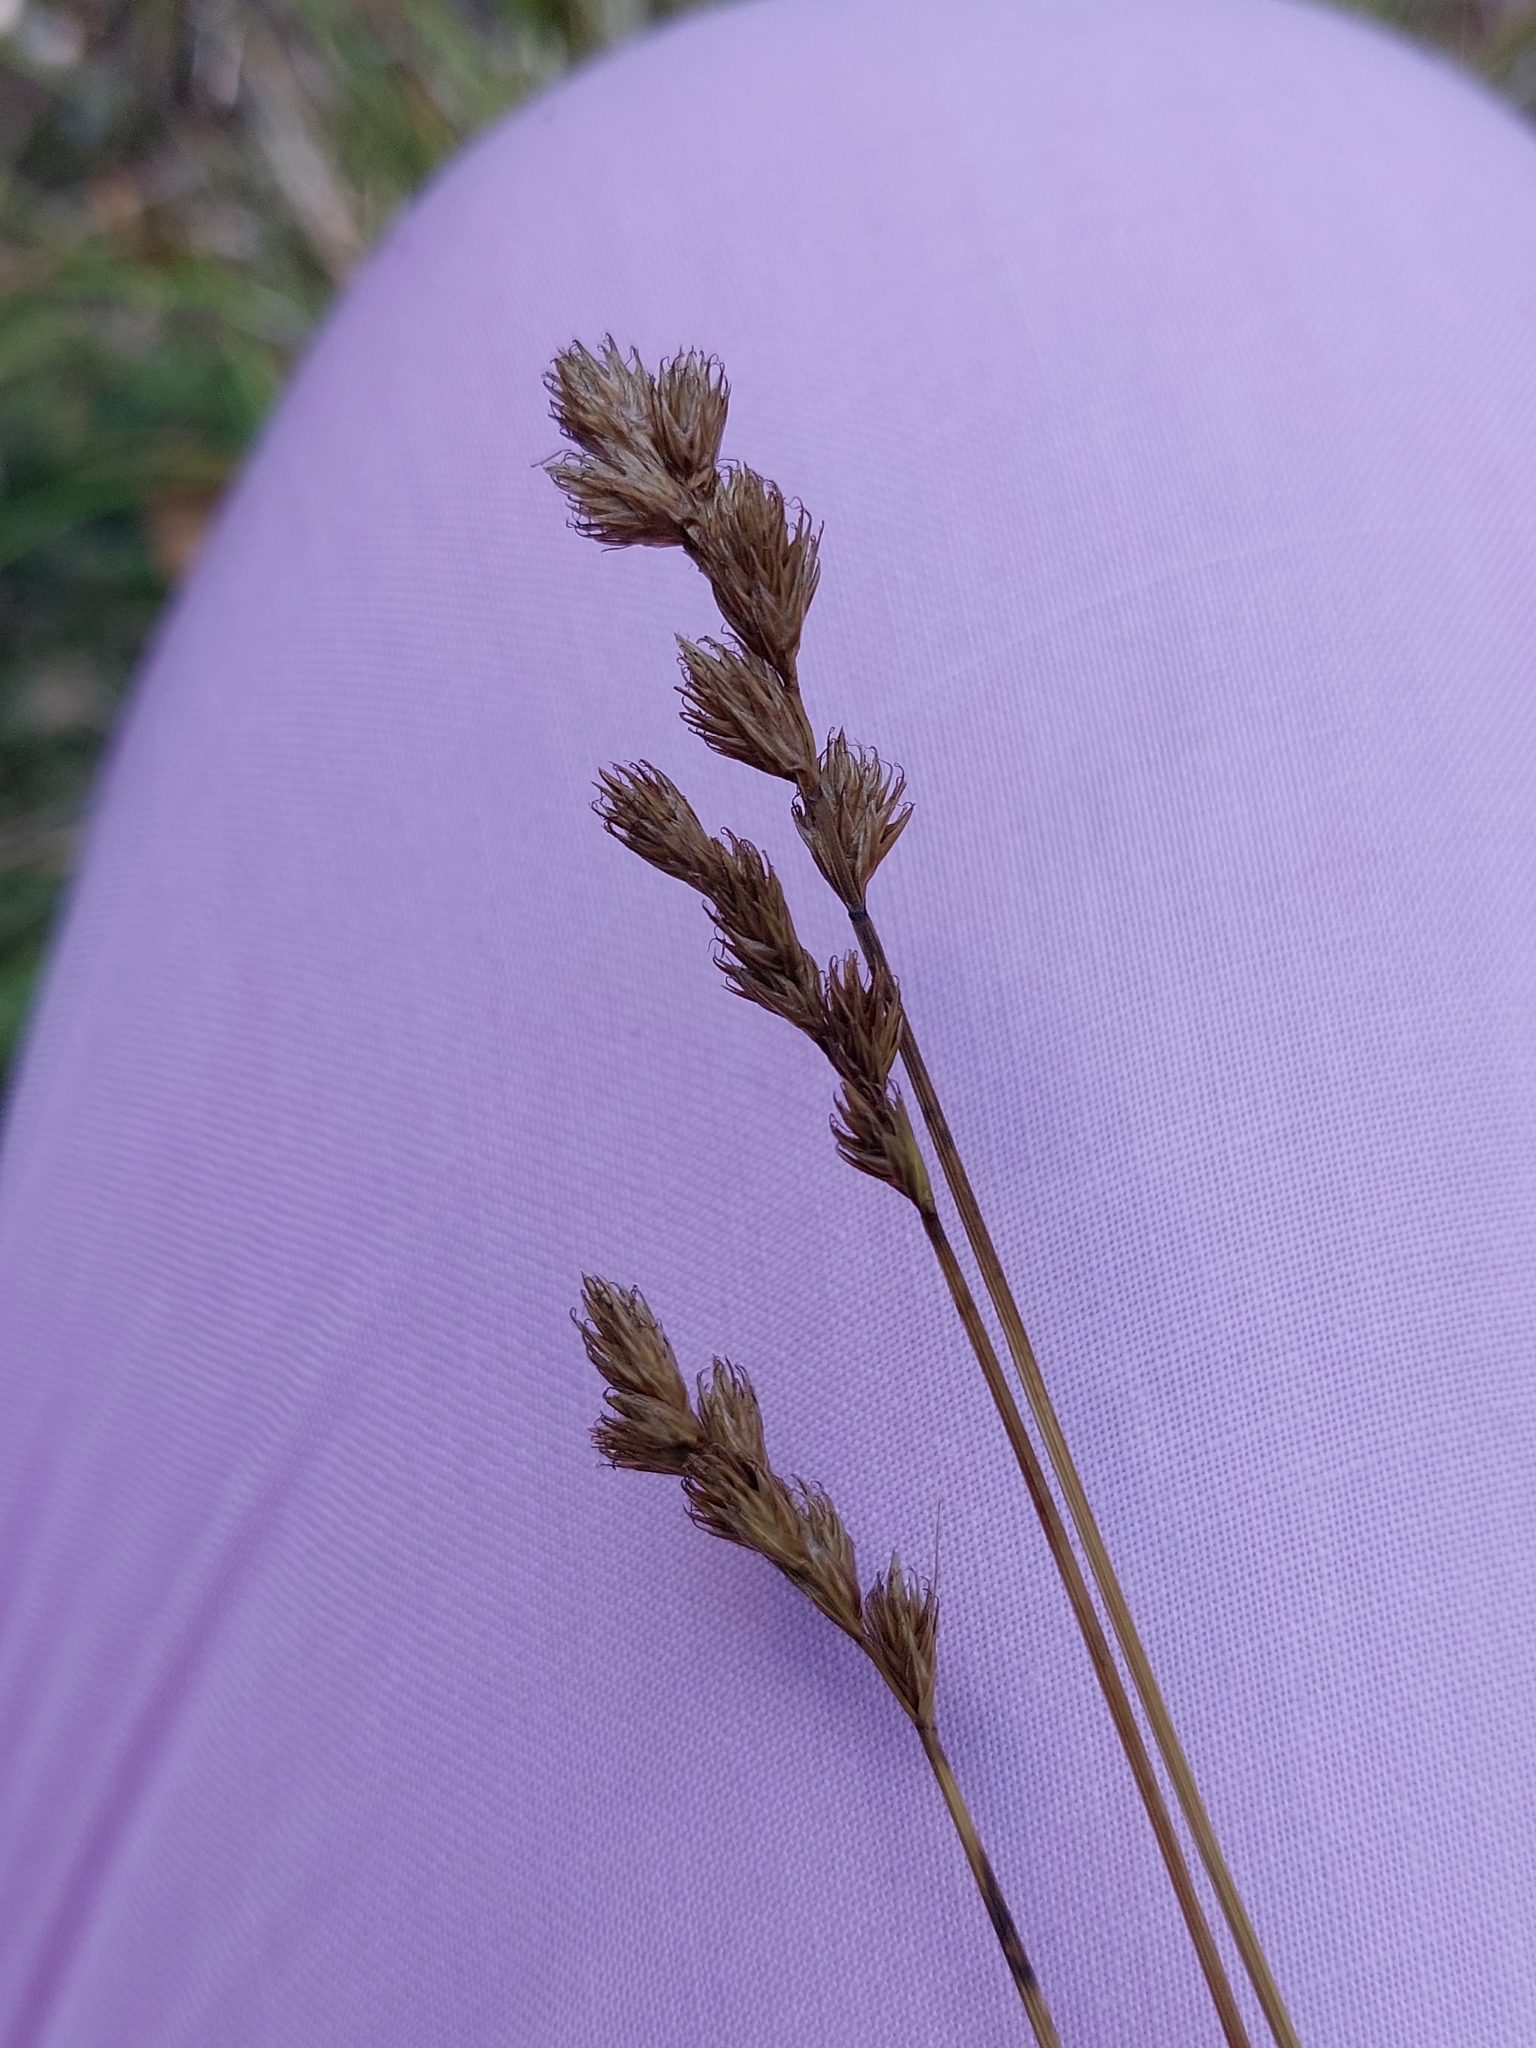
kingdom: Plantae
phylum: Tracheophyta
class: Liliopsida
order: Poales
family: Cyperaceae
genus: Carex
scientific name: Carex leporina
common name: Oval sedge
